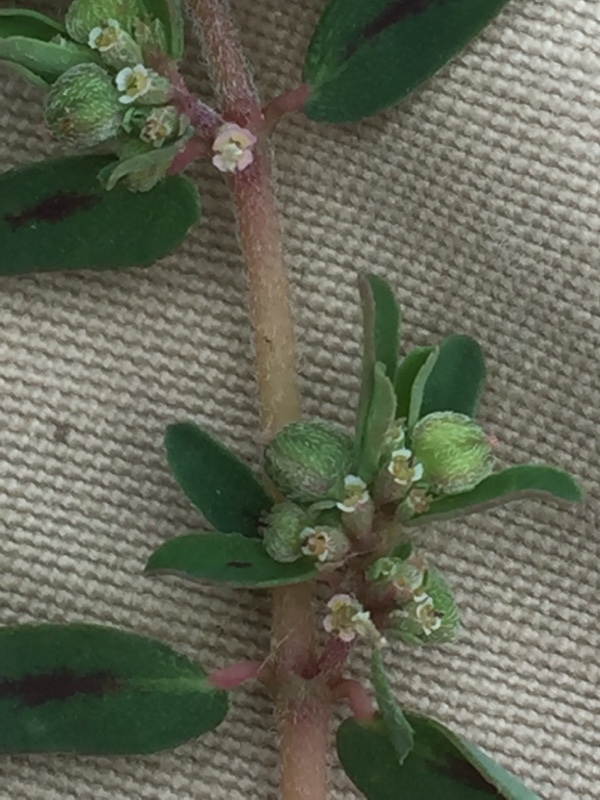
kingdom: Plantae
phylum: Tracheophyta
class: Magnoliopsida
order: Malpighiales
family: Euphorbiaceae
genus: Euphorbia
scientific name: Euphorbia maculata
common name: Spotted spurge
